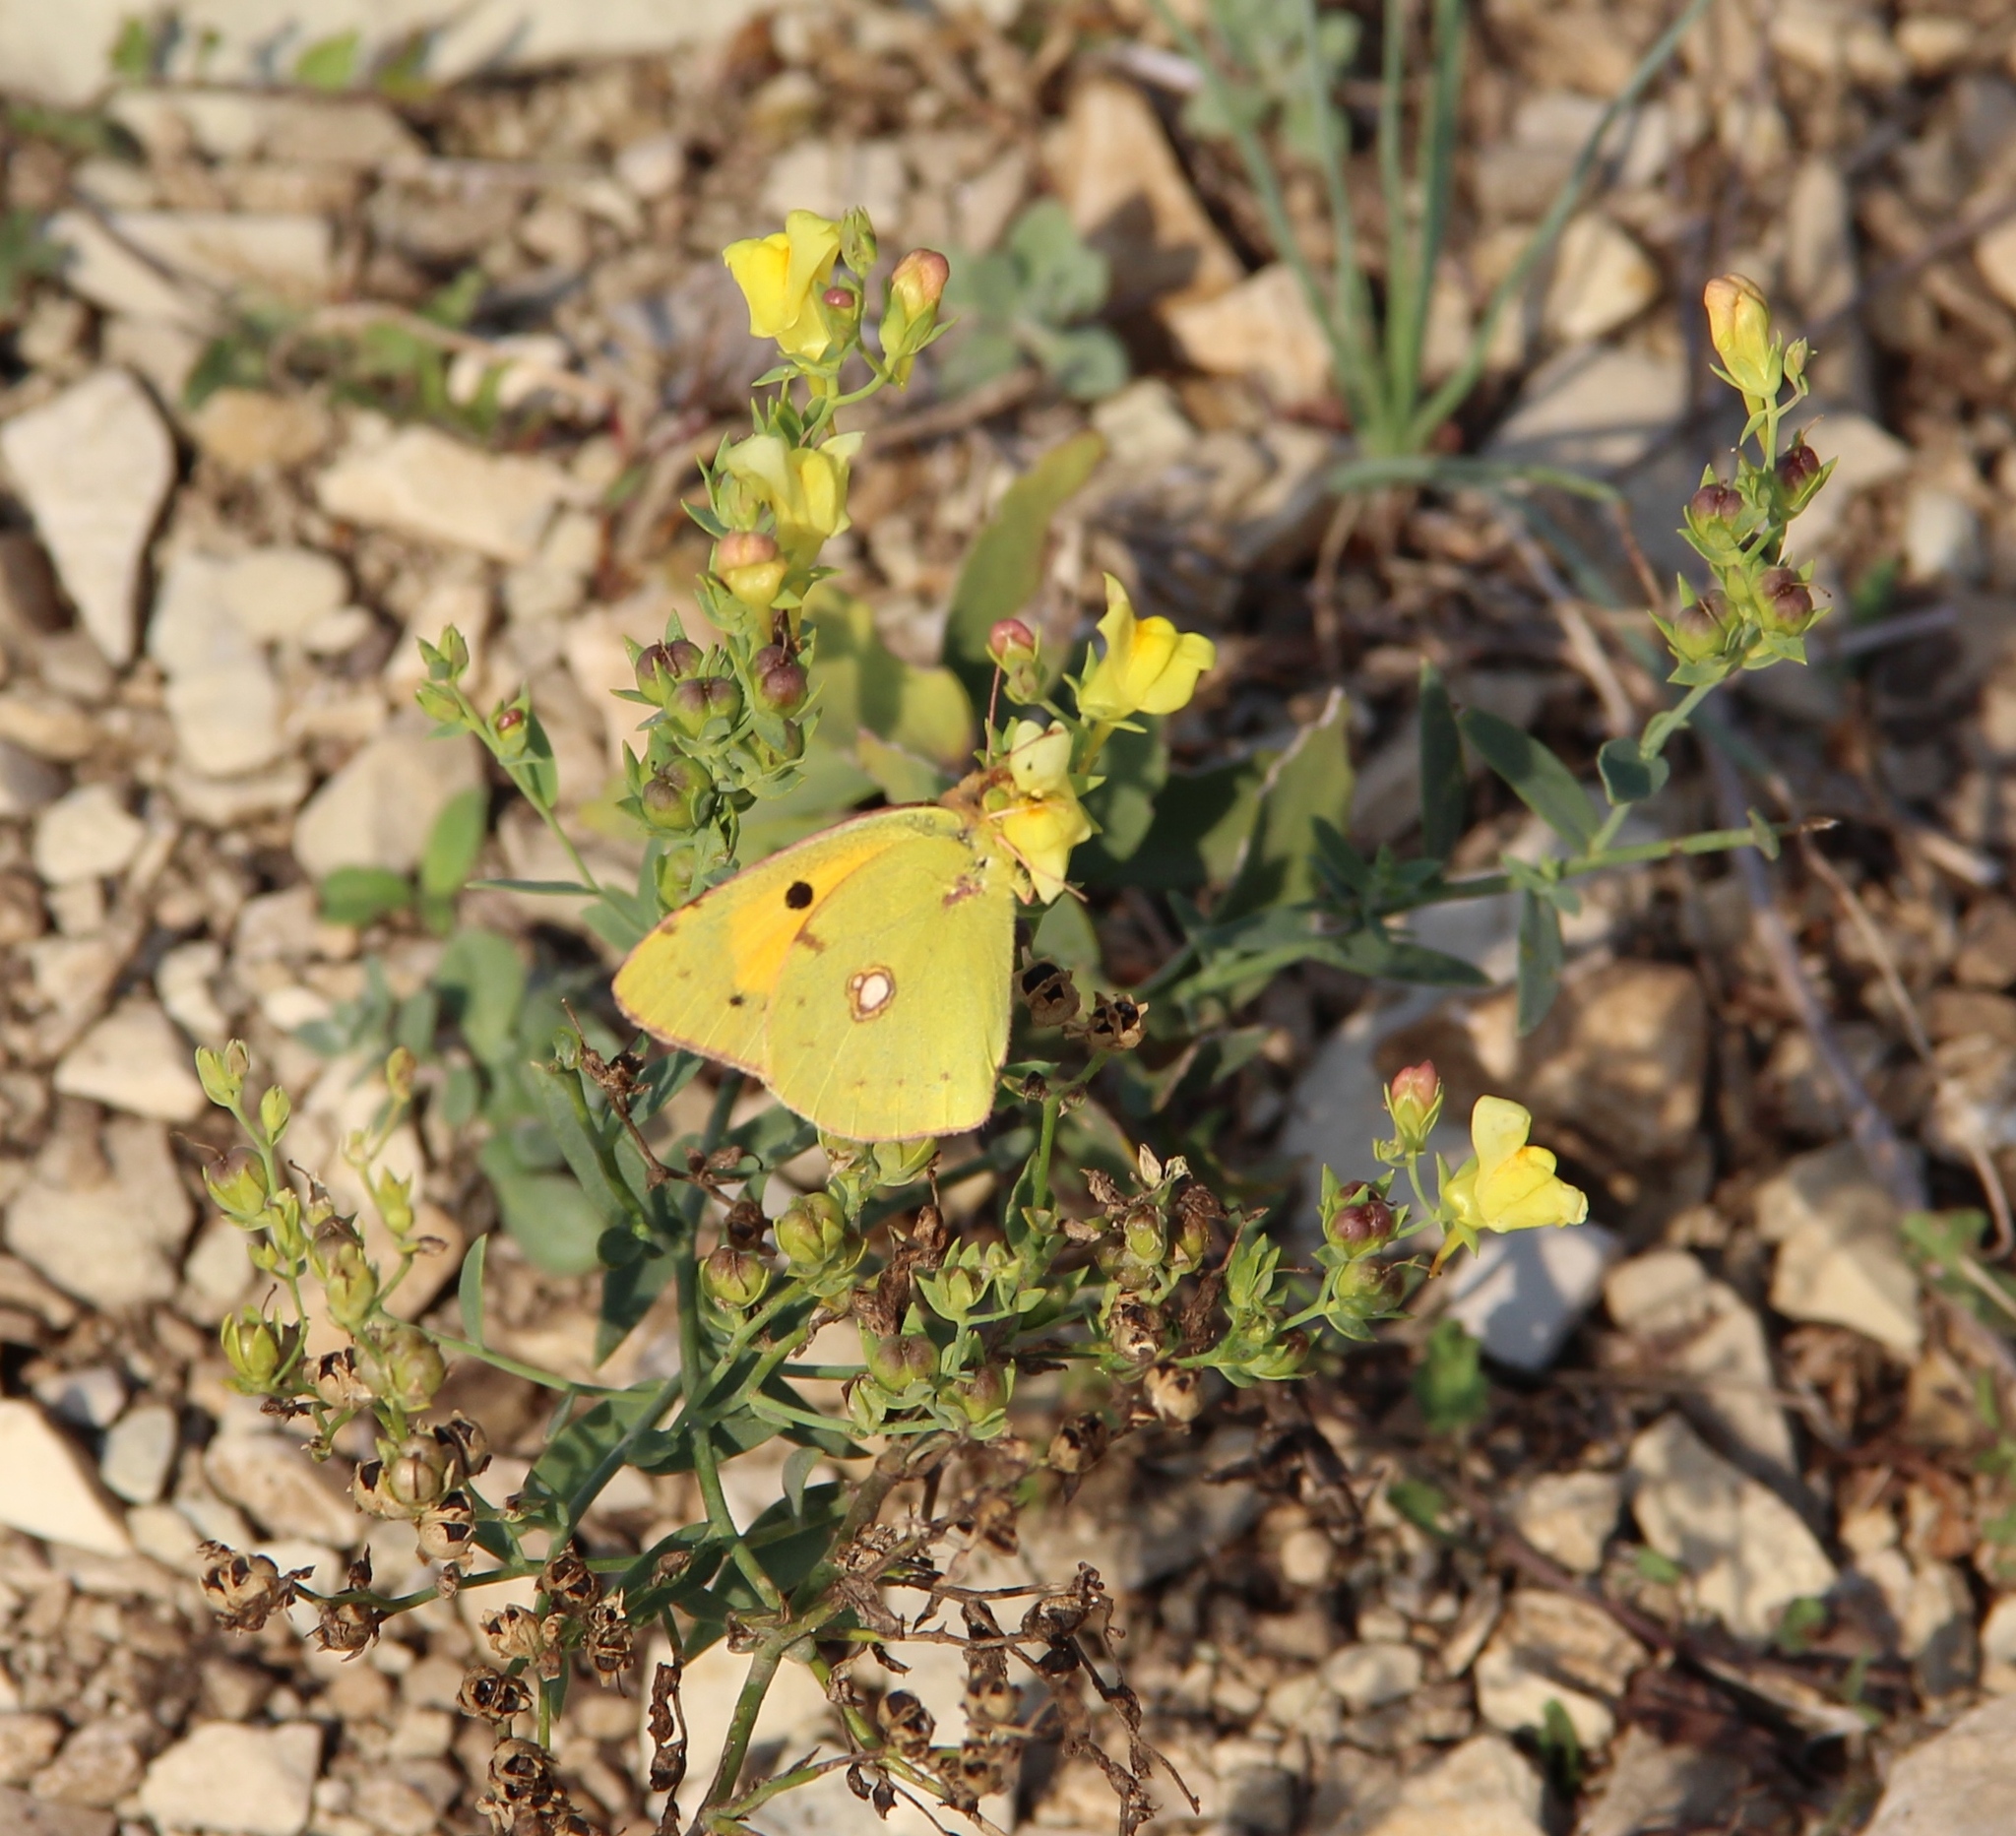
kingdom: Animalia
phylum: Arthropoda
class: Insecta
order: Lepidoptera
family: Pieridae
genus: Colias
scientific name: Colias croceus
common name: Clouded yellow
